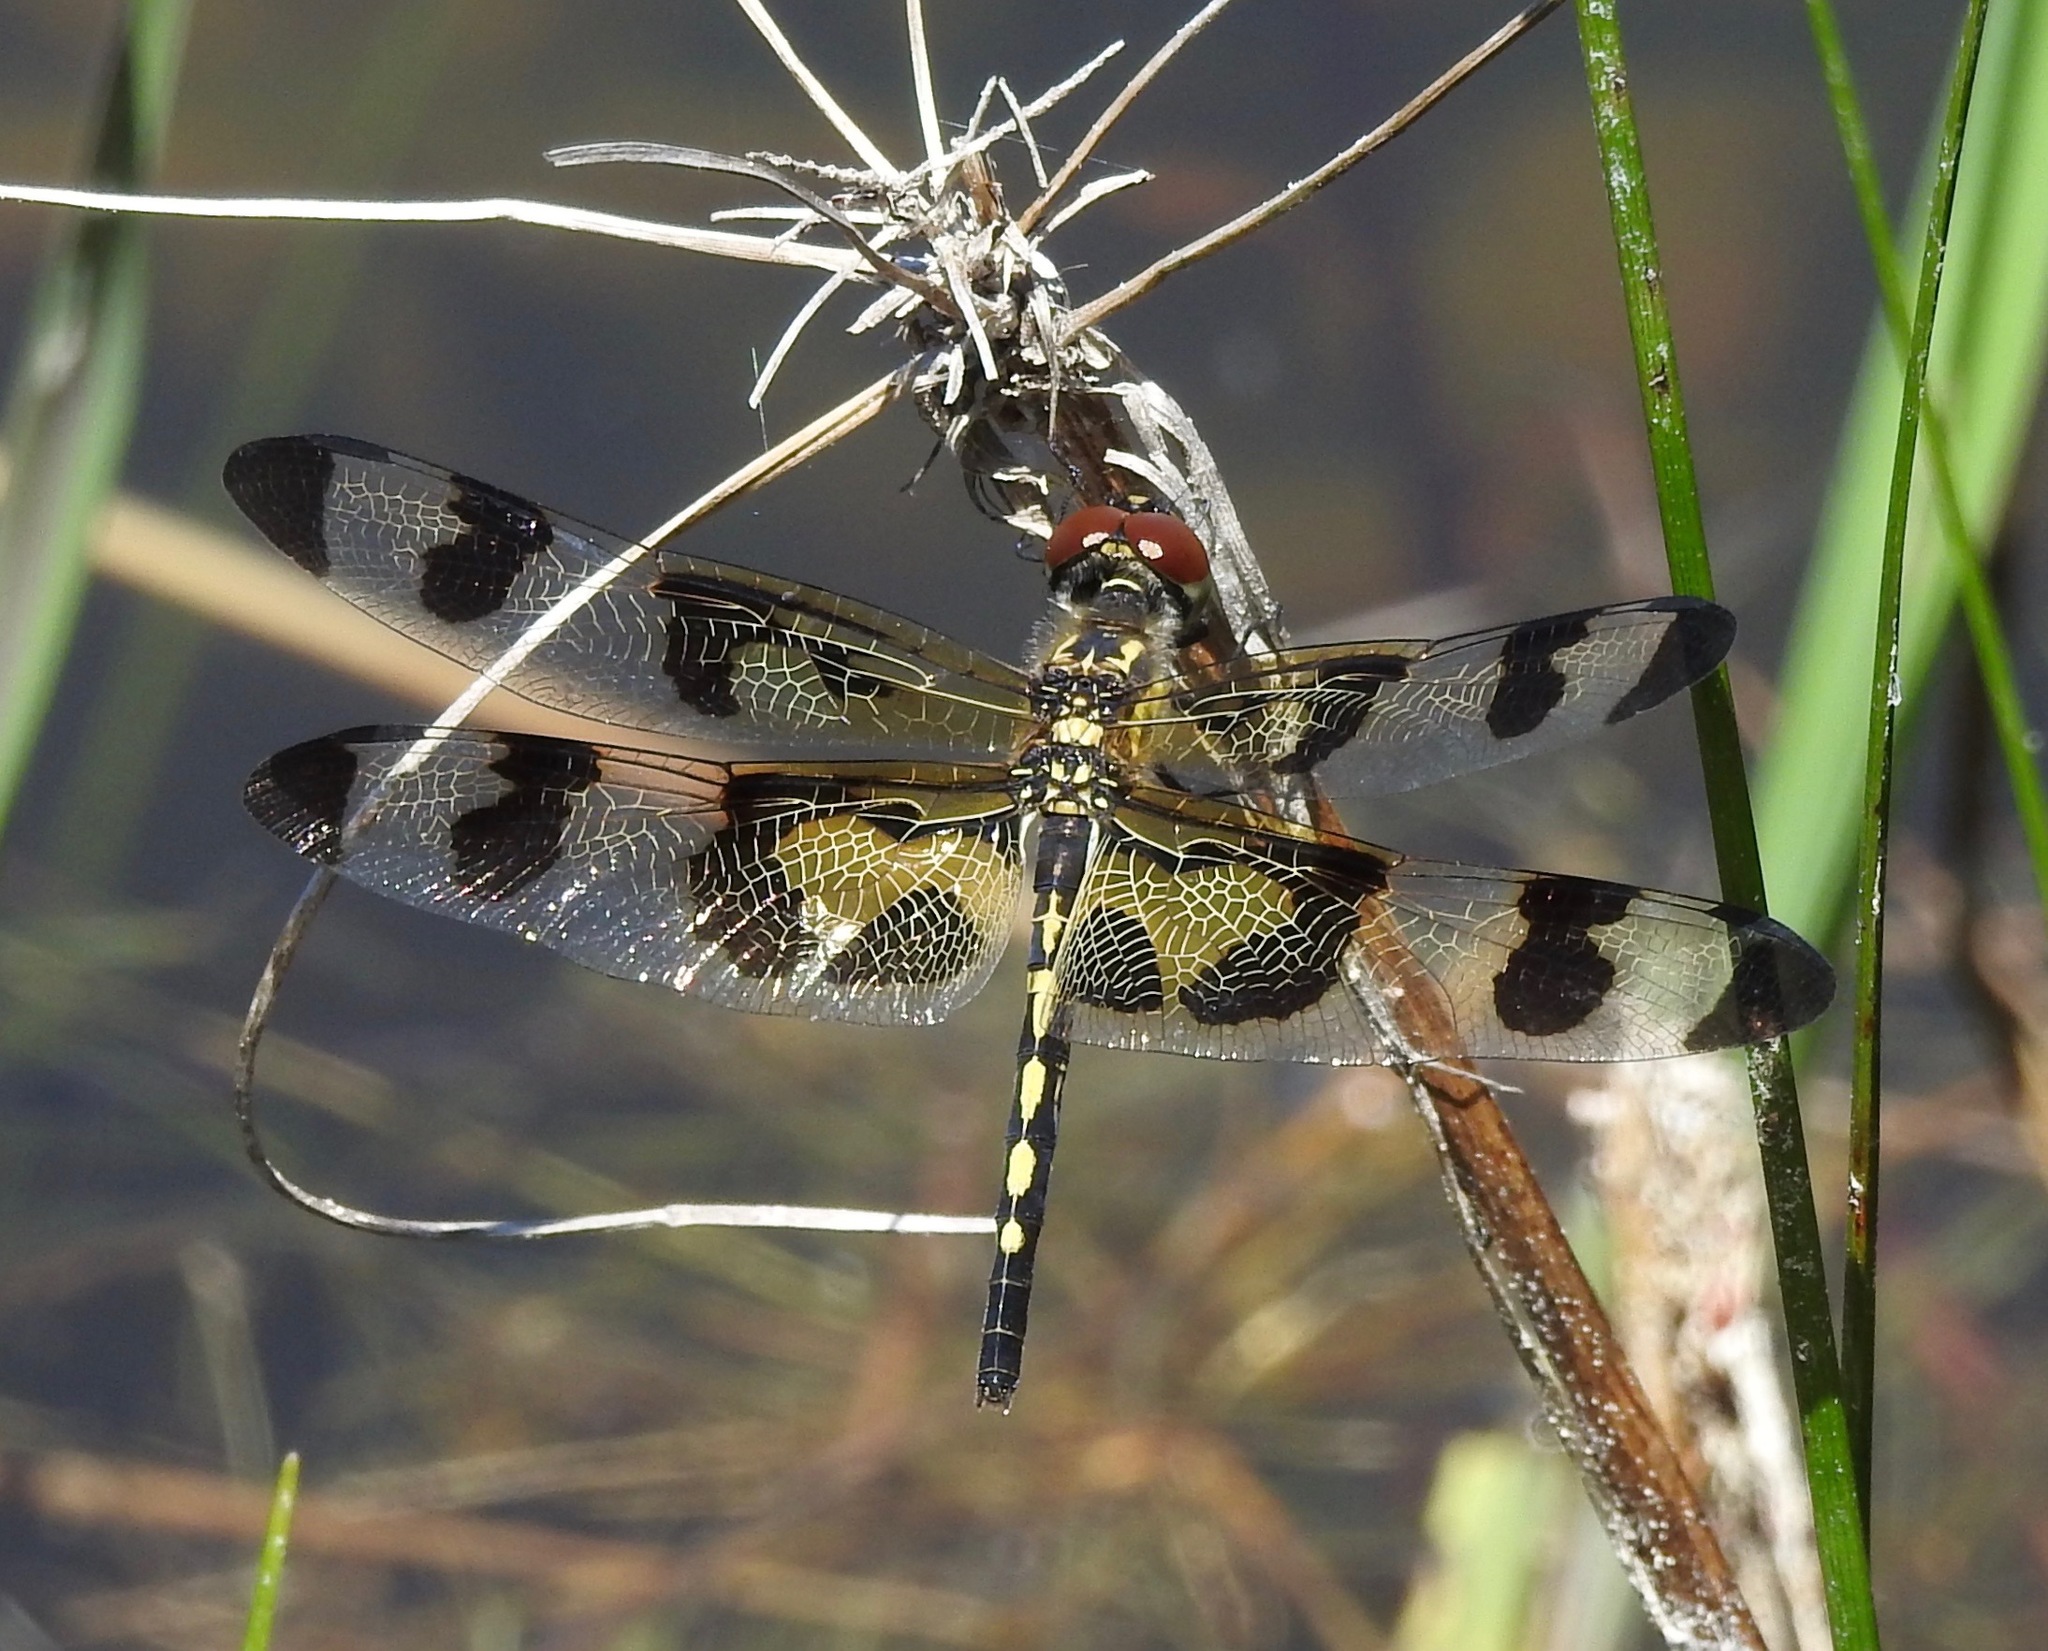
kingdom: Animalia
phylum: Arthropoda
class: Insecta
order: Odonata
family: Libellulidae
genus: Celithemis
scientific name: Celithemis fasciata
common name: Banded pennant
